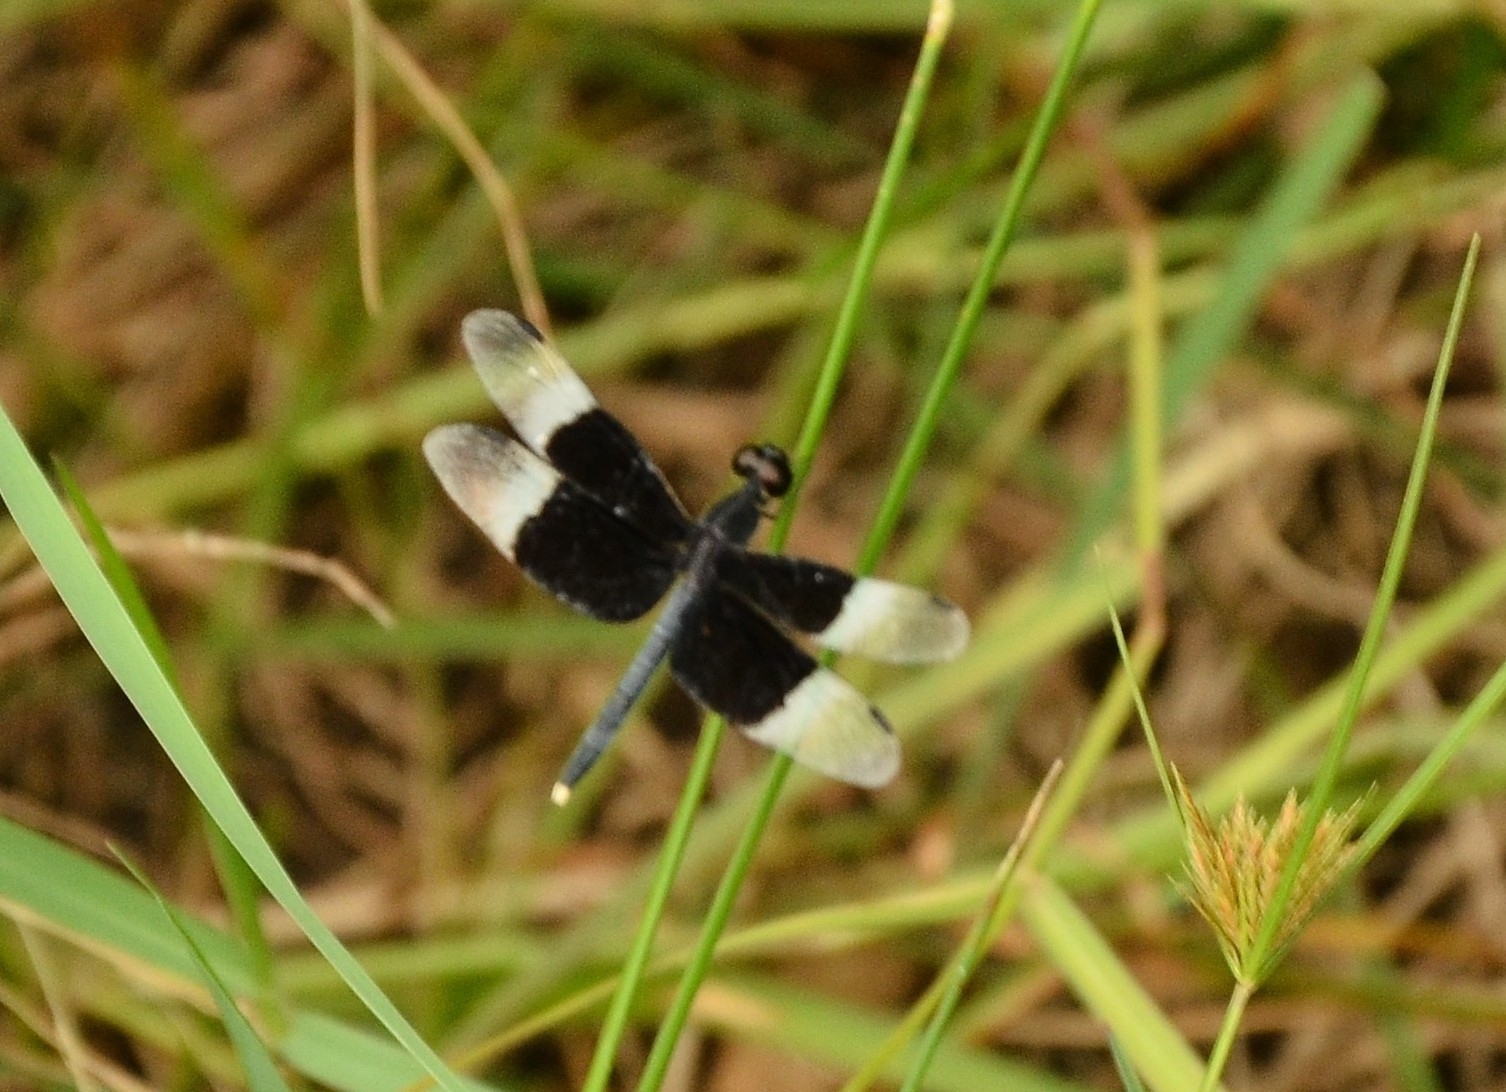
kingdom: Animalia
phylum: Arthropoda
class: Insecta
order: Odonata
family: Libellulidae
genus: Neurothemis
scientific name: Neurothemis tullia
